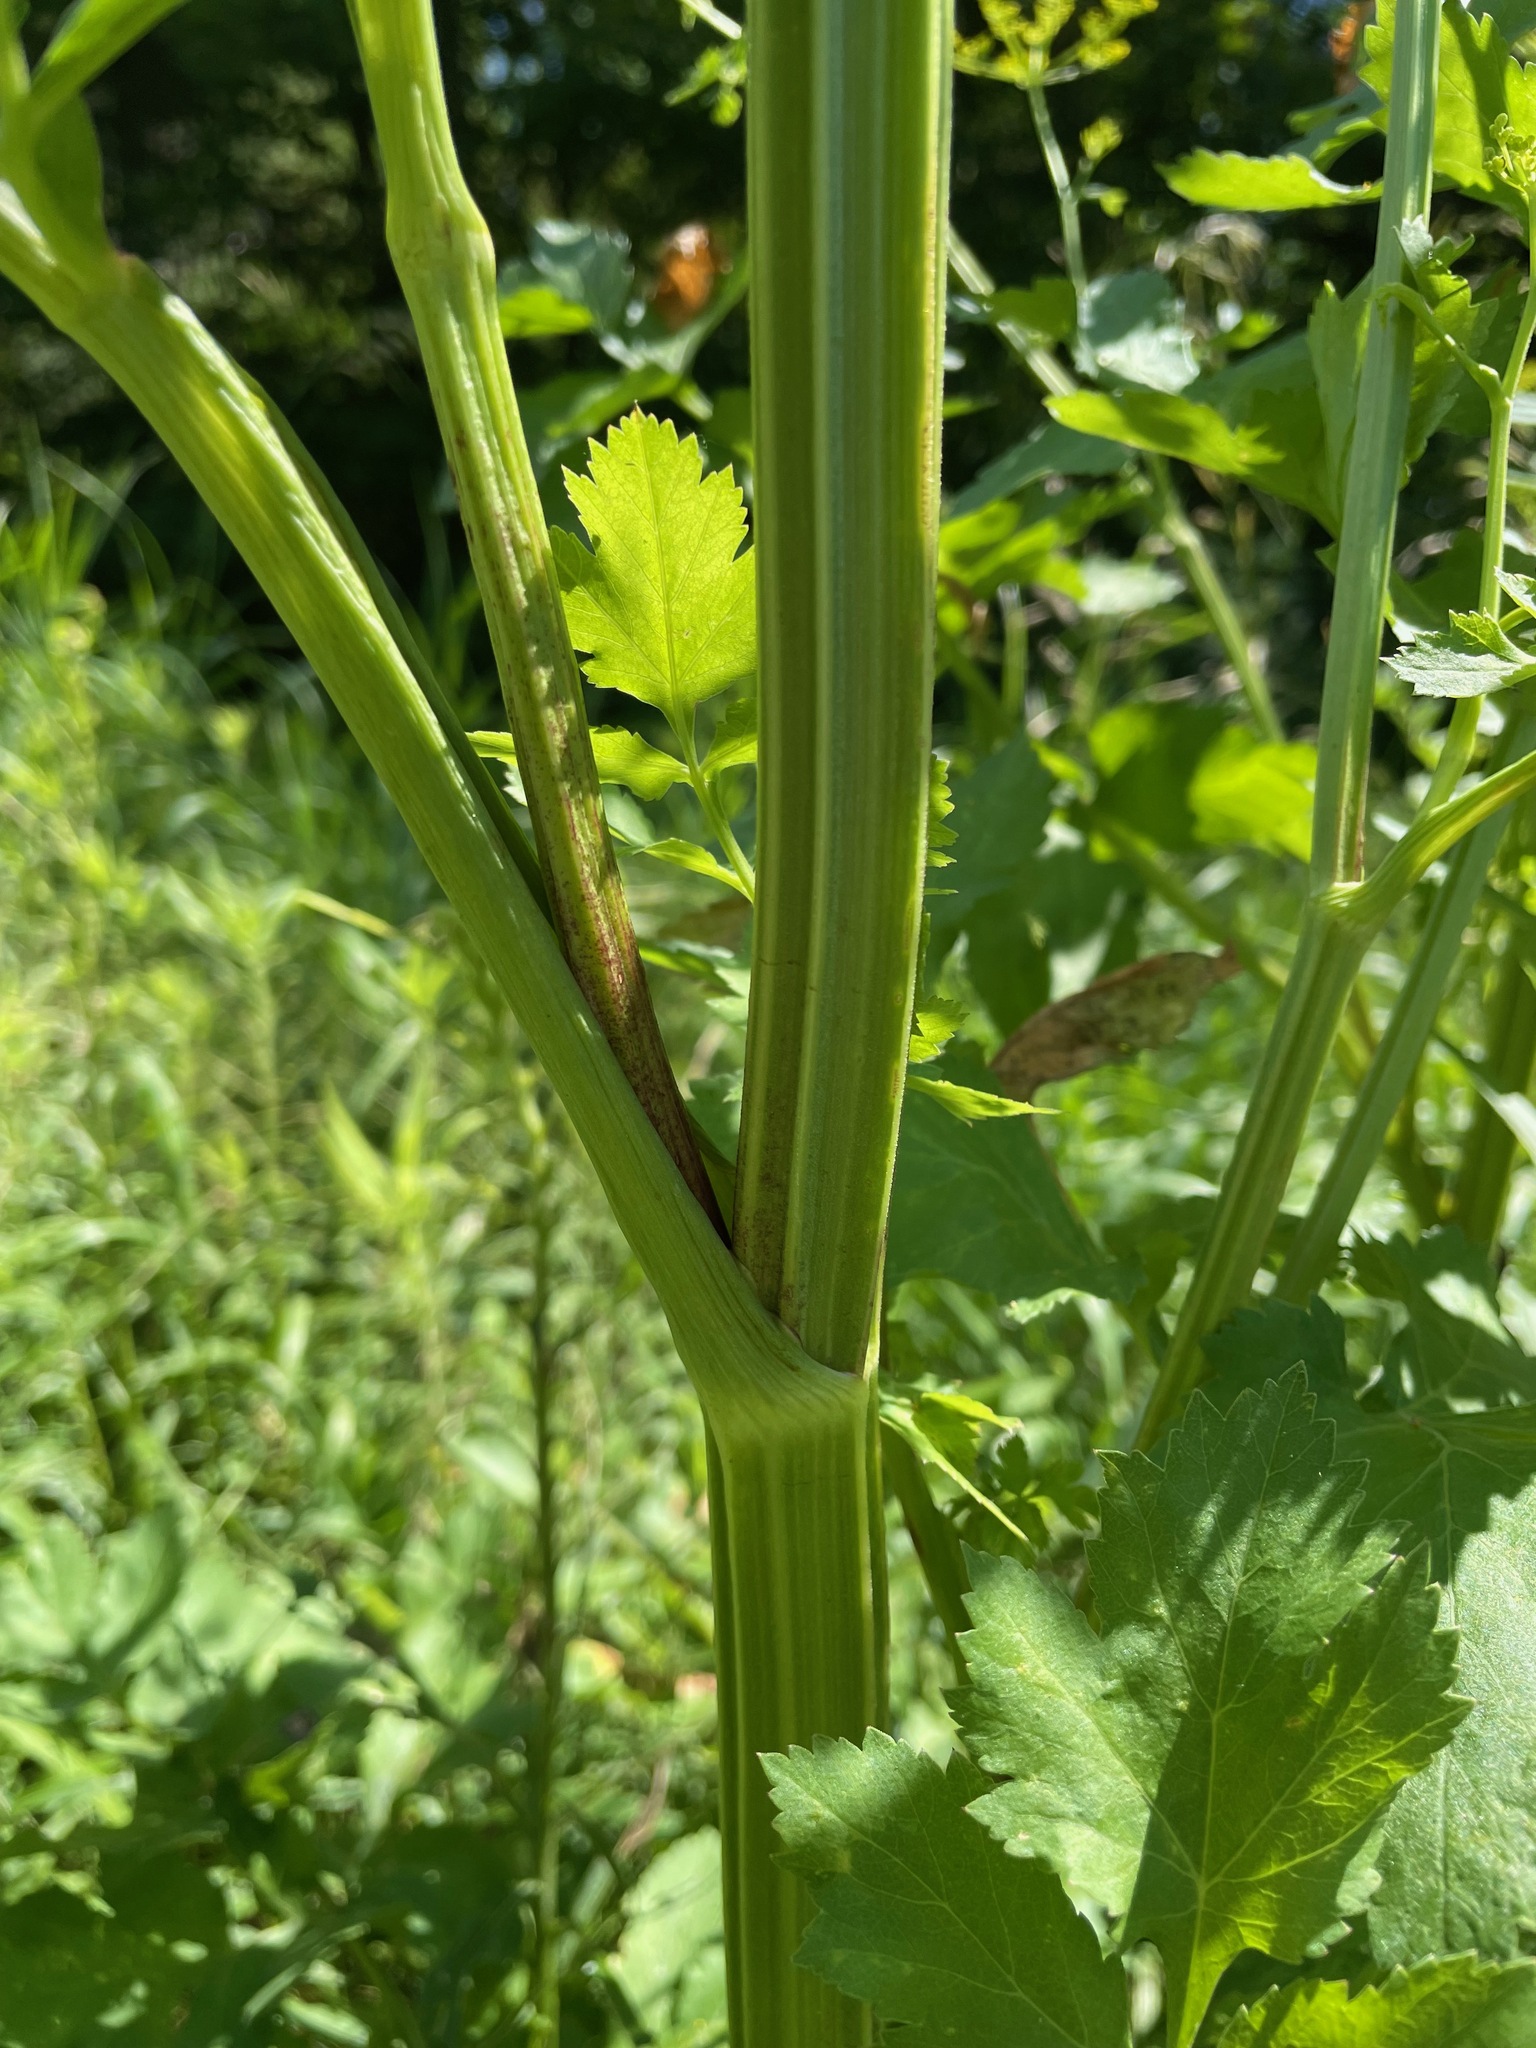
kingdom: Plantae
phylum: Tracheophyta
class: Magnoliopsida
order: Apiales
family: Apiaceae
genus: Pastinaca
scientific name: Pastinaca sativa
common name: Wild parsnip
